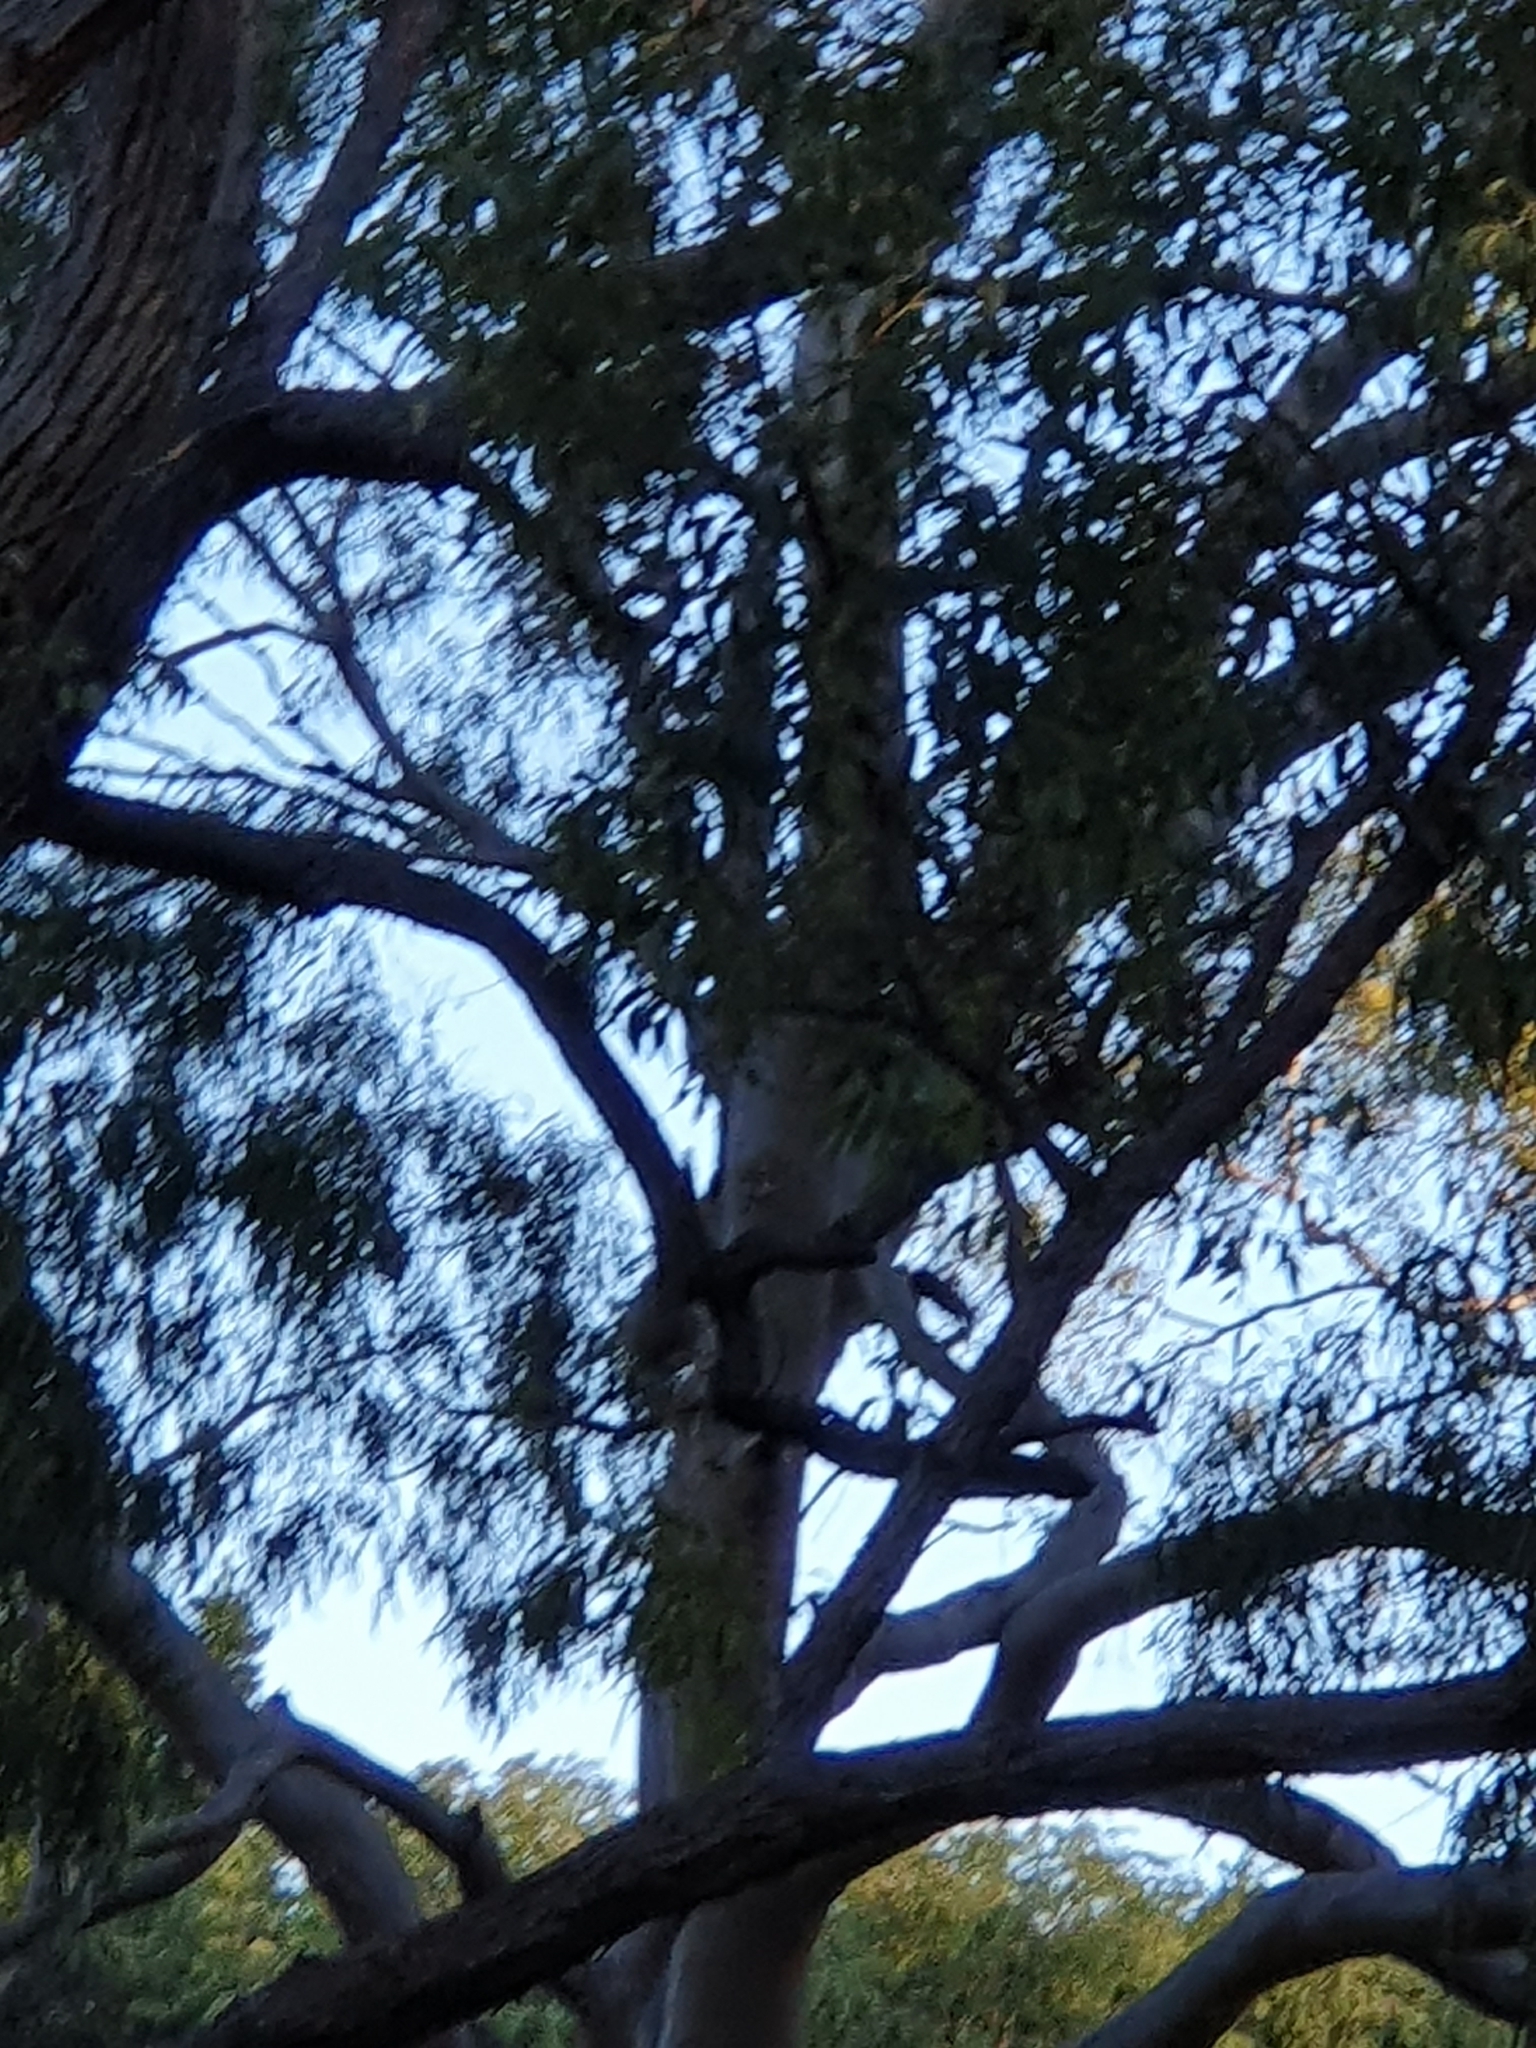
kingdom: Animalia
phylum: Chordata
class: Aves
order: Psittaciformes
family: Psittacidae
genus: Calyptorhynchus
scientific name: Calyptorhynchus banksii
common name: Red-tailed black cockatoo
